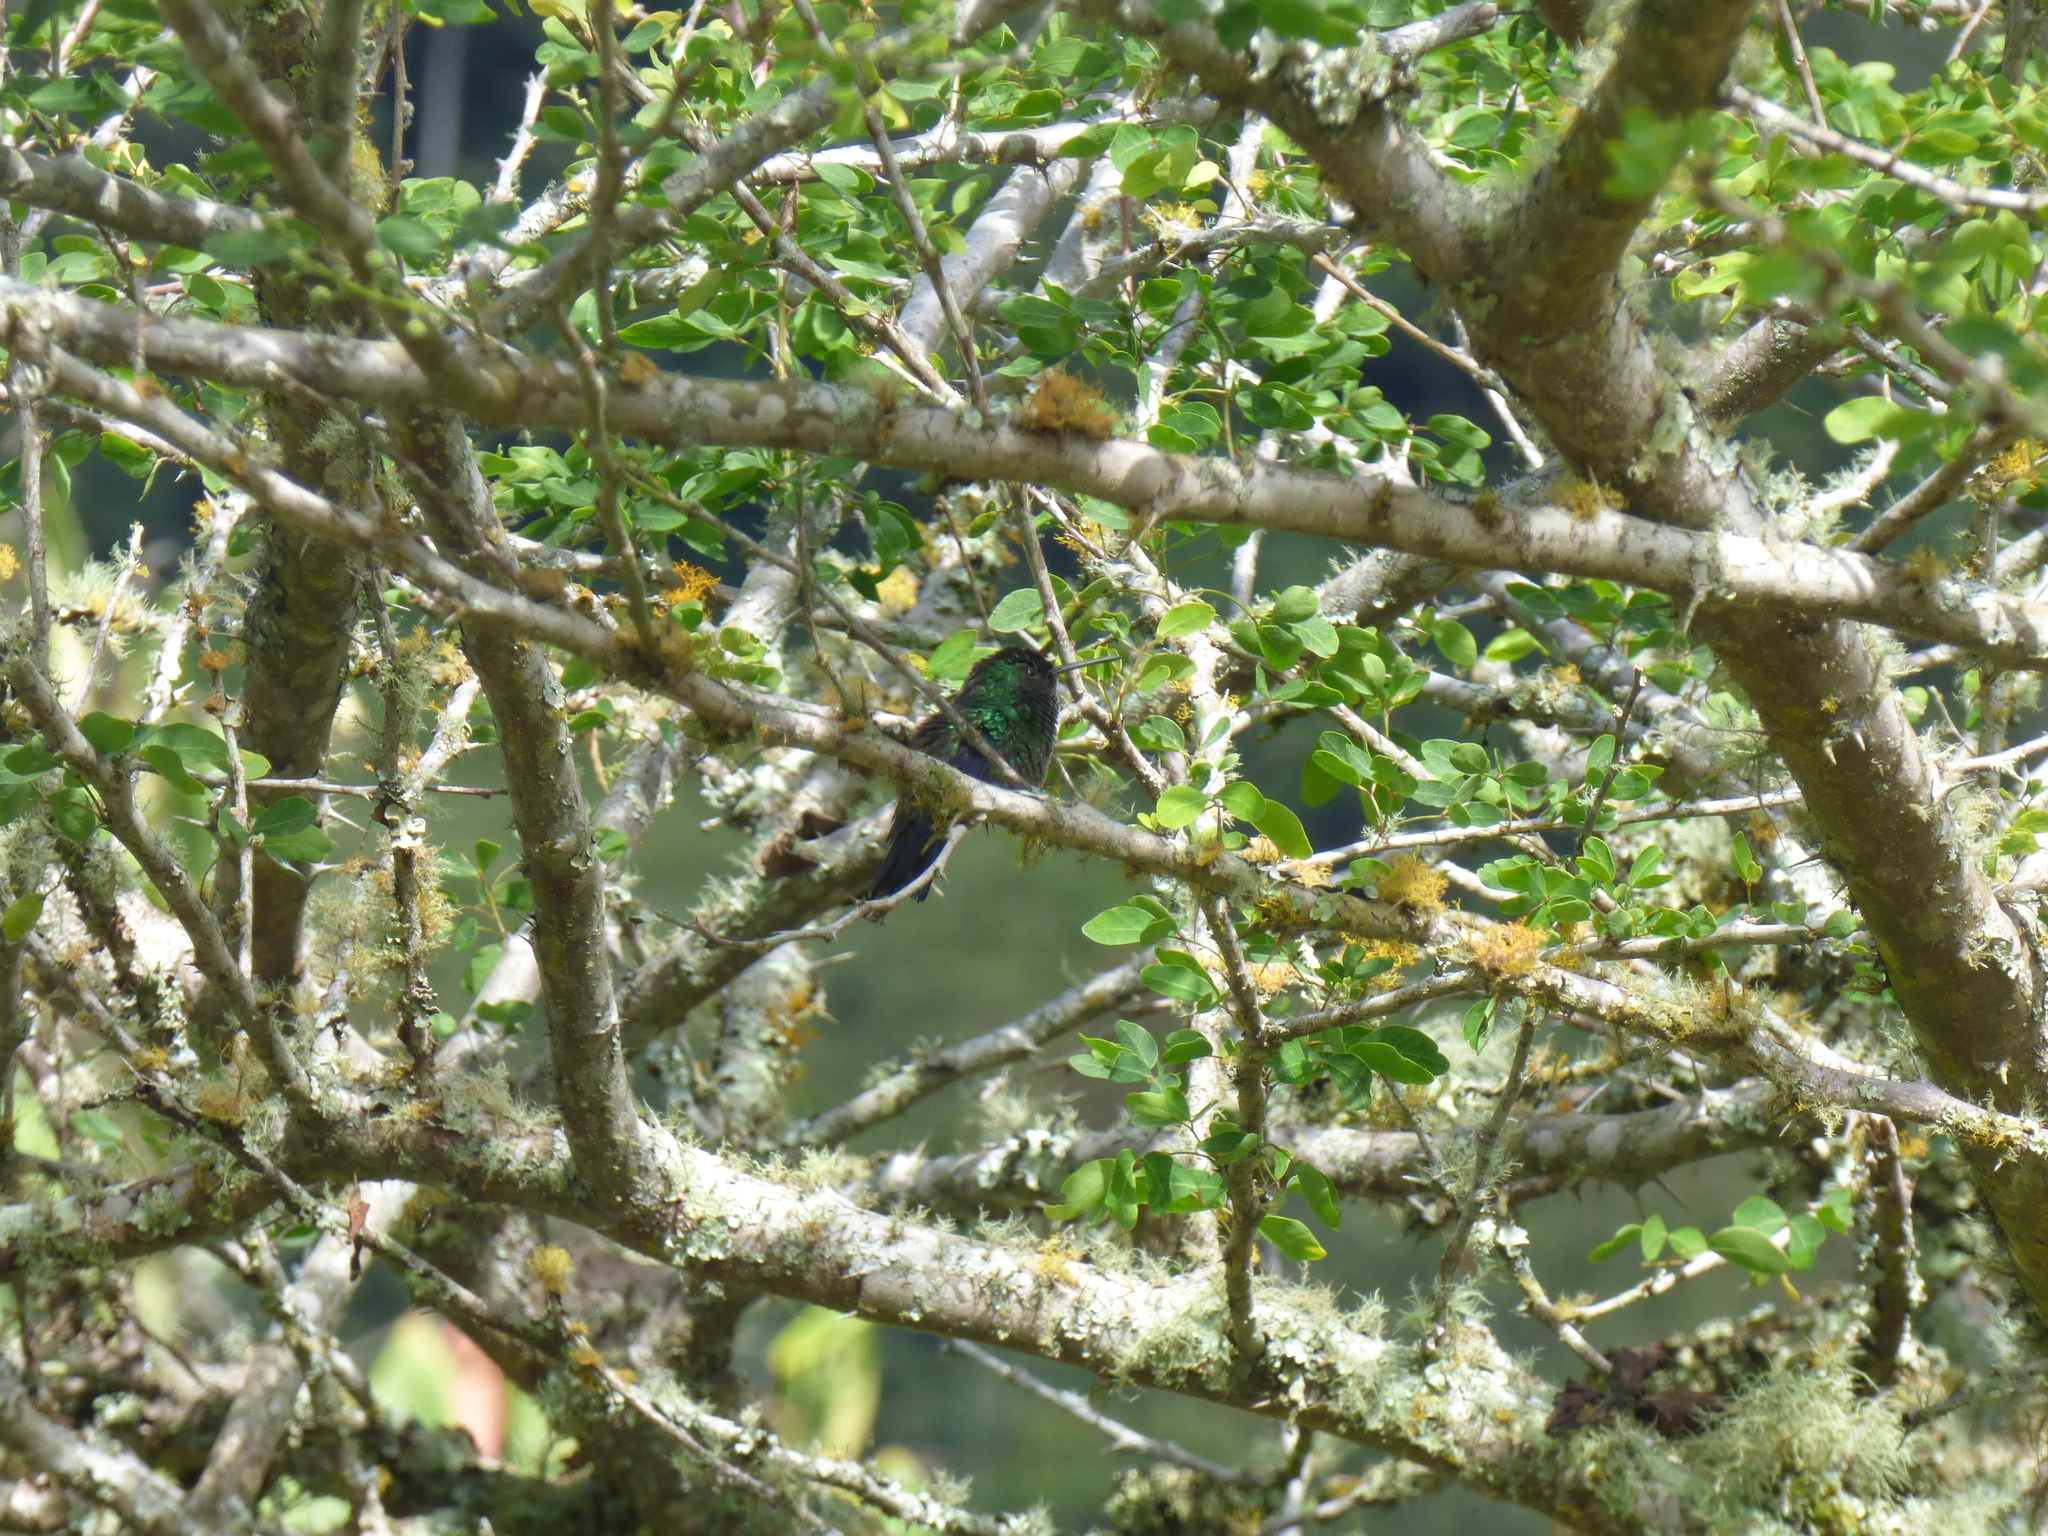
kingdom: Animalia
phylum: Chordata
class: Aves
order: Apodiformes
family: Trochilidae
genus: Saucerottia
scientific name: Saucerottia saucerottei
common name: Steely-vented hummingbird
